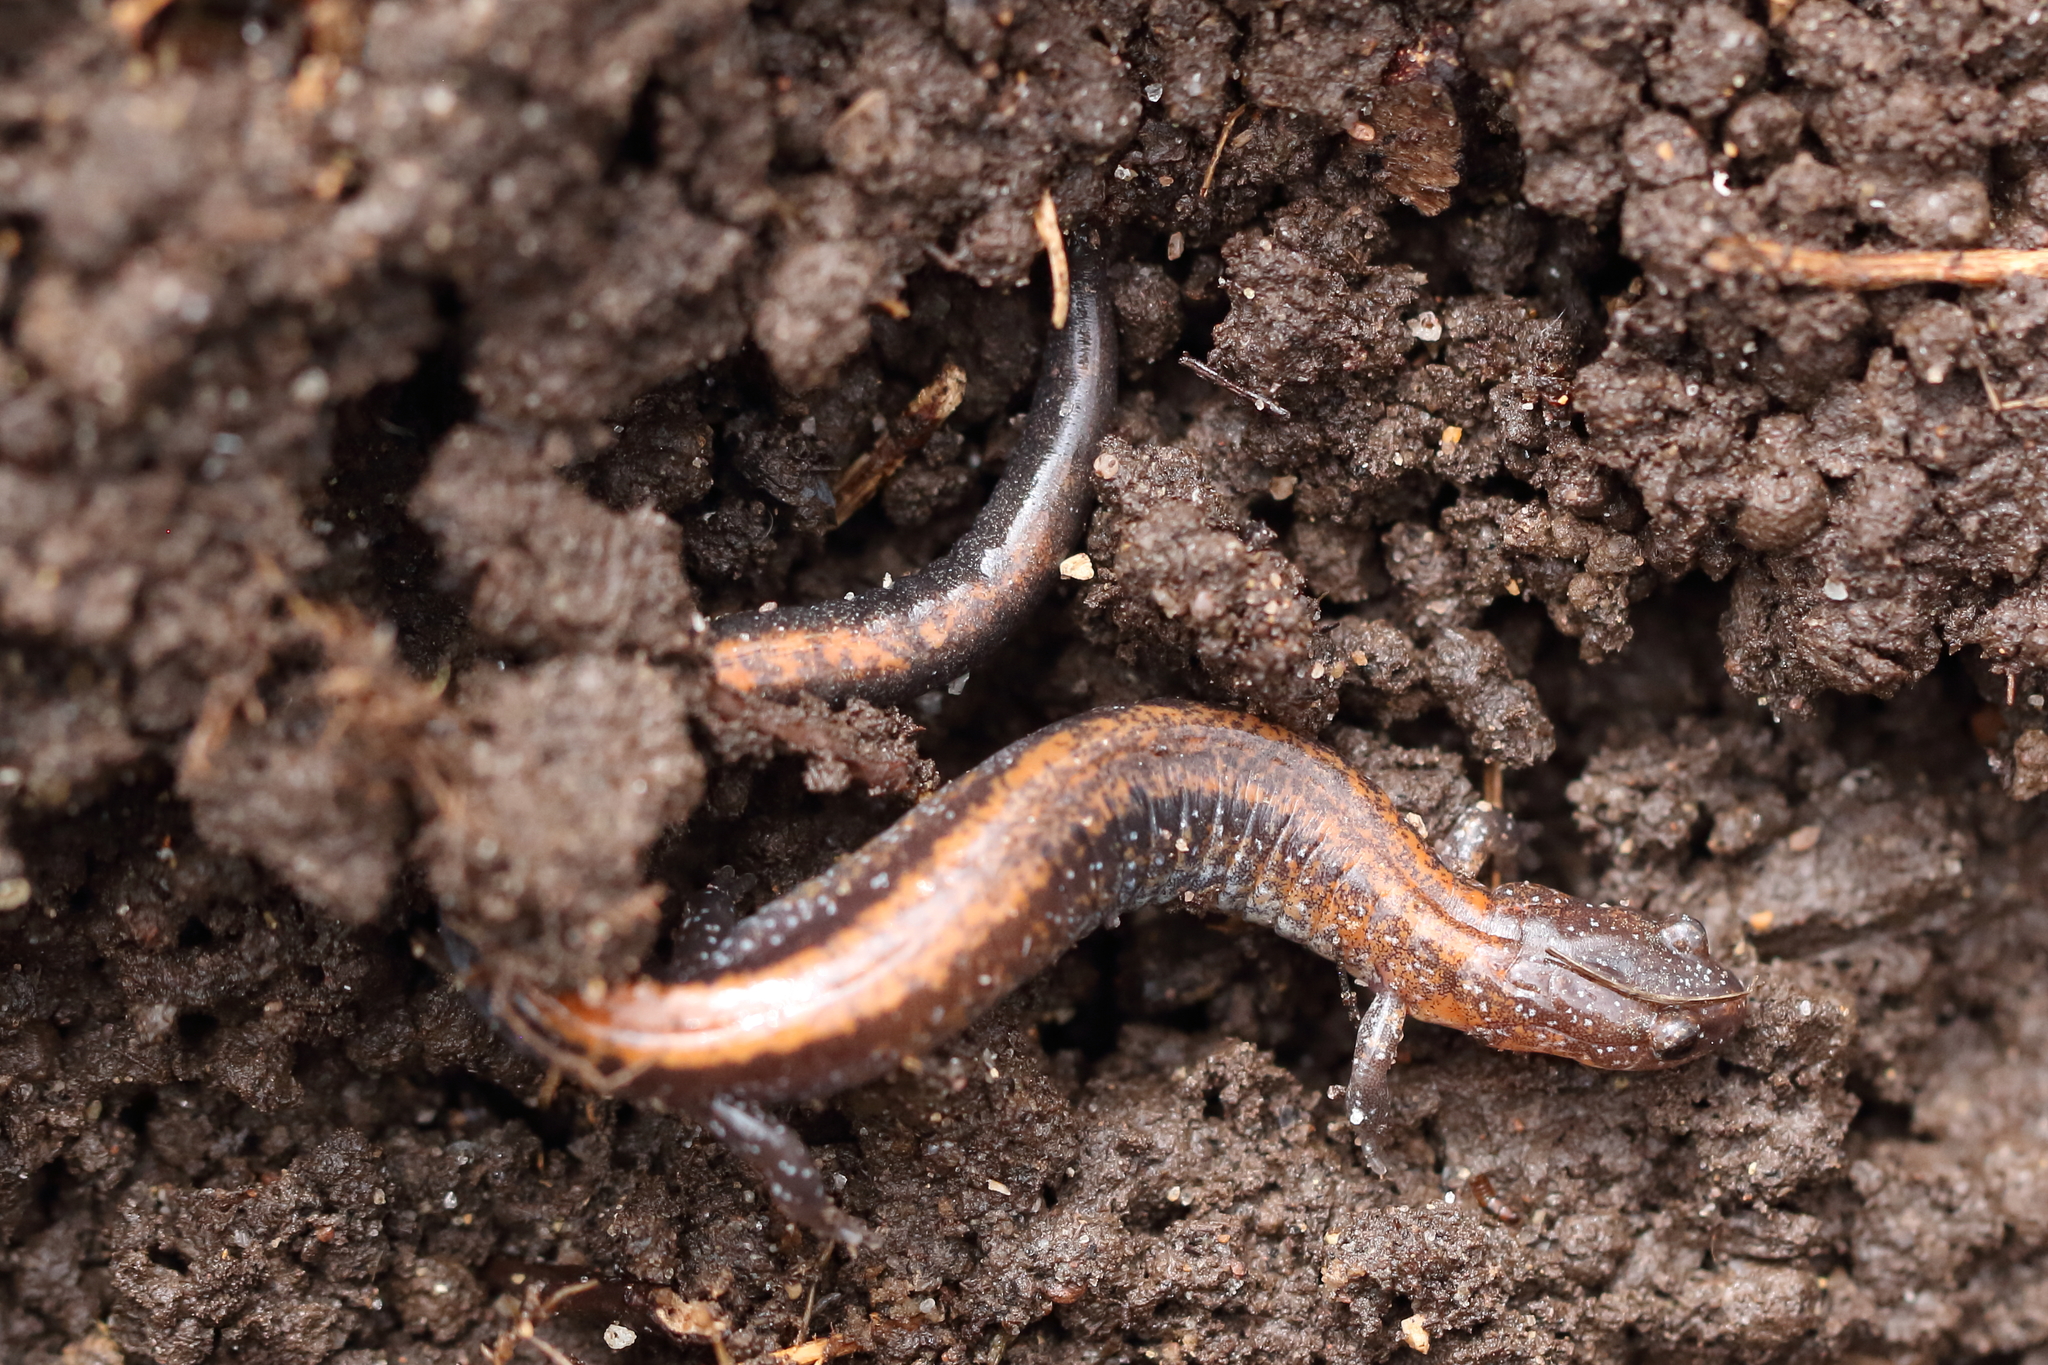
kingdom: Animalia
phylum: Chordata
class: Amphibia
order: Caudata
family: Plethodontidae
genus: Plethodon
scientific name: Plethodon cinereus
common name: Redback salamander
